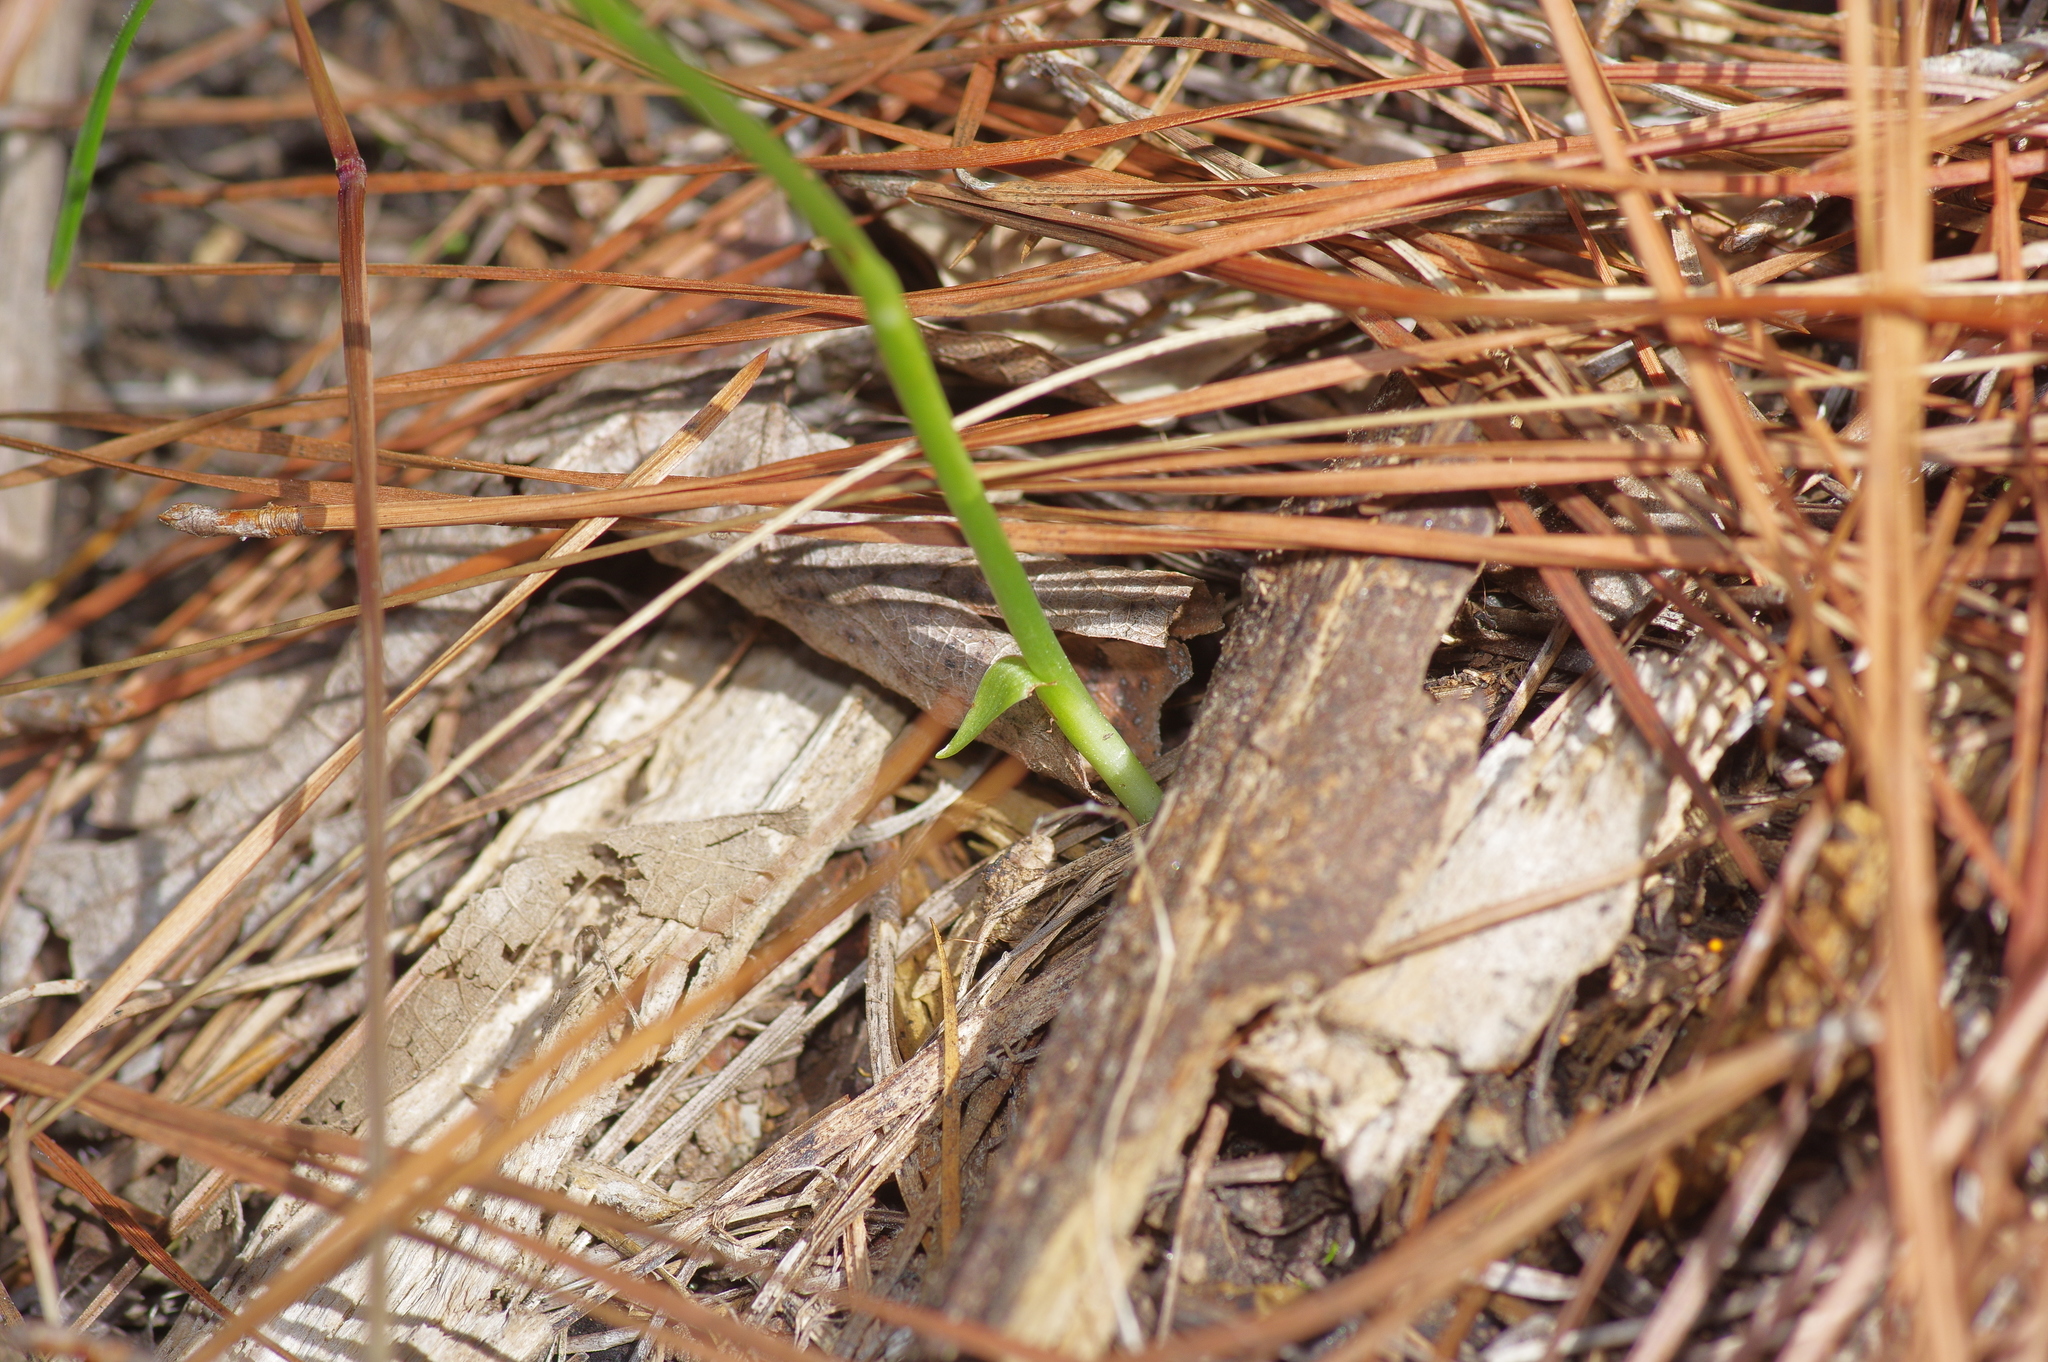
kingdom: Plantae
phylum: Tracheophyta
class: Liliopsida
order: Asparagales
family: Orchidaceae
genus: Spiranthes
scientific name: Spiranthes lacera
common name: Northern slender ladies'-tresses
